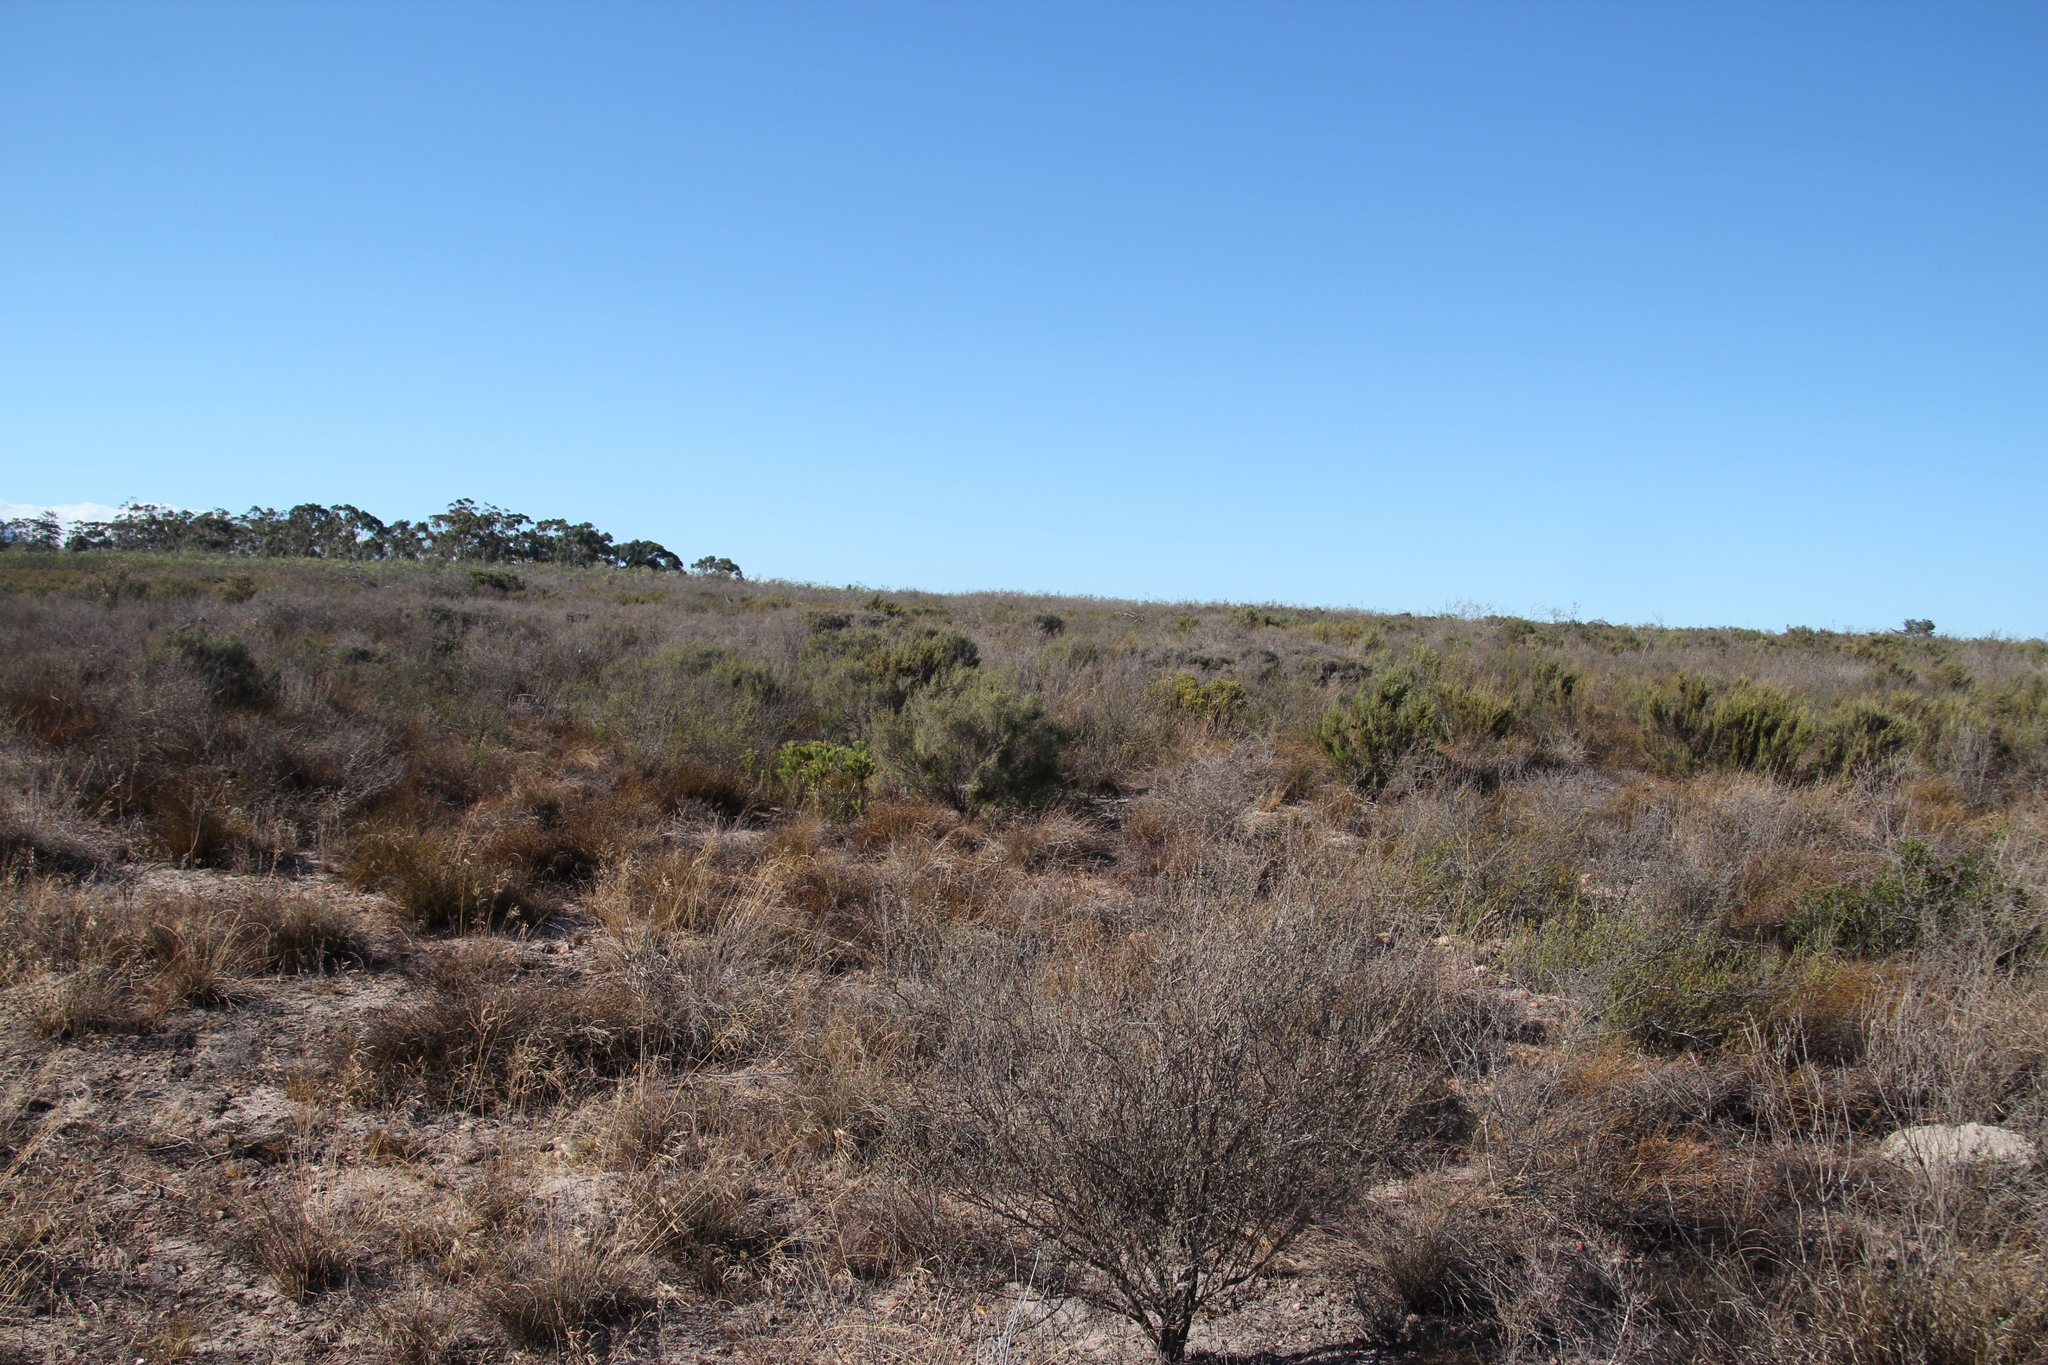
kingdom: Plantae
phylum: Tracheophyta
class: Magnoliopsida
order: Proteales
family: Proteaceae
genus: Leucadendron
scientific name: Leucadendron lanigerum
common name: Shale conebush
